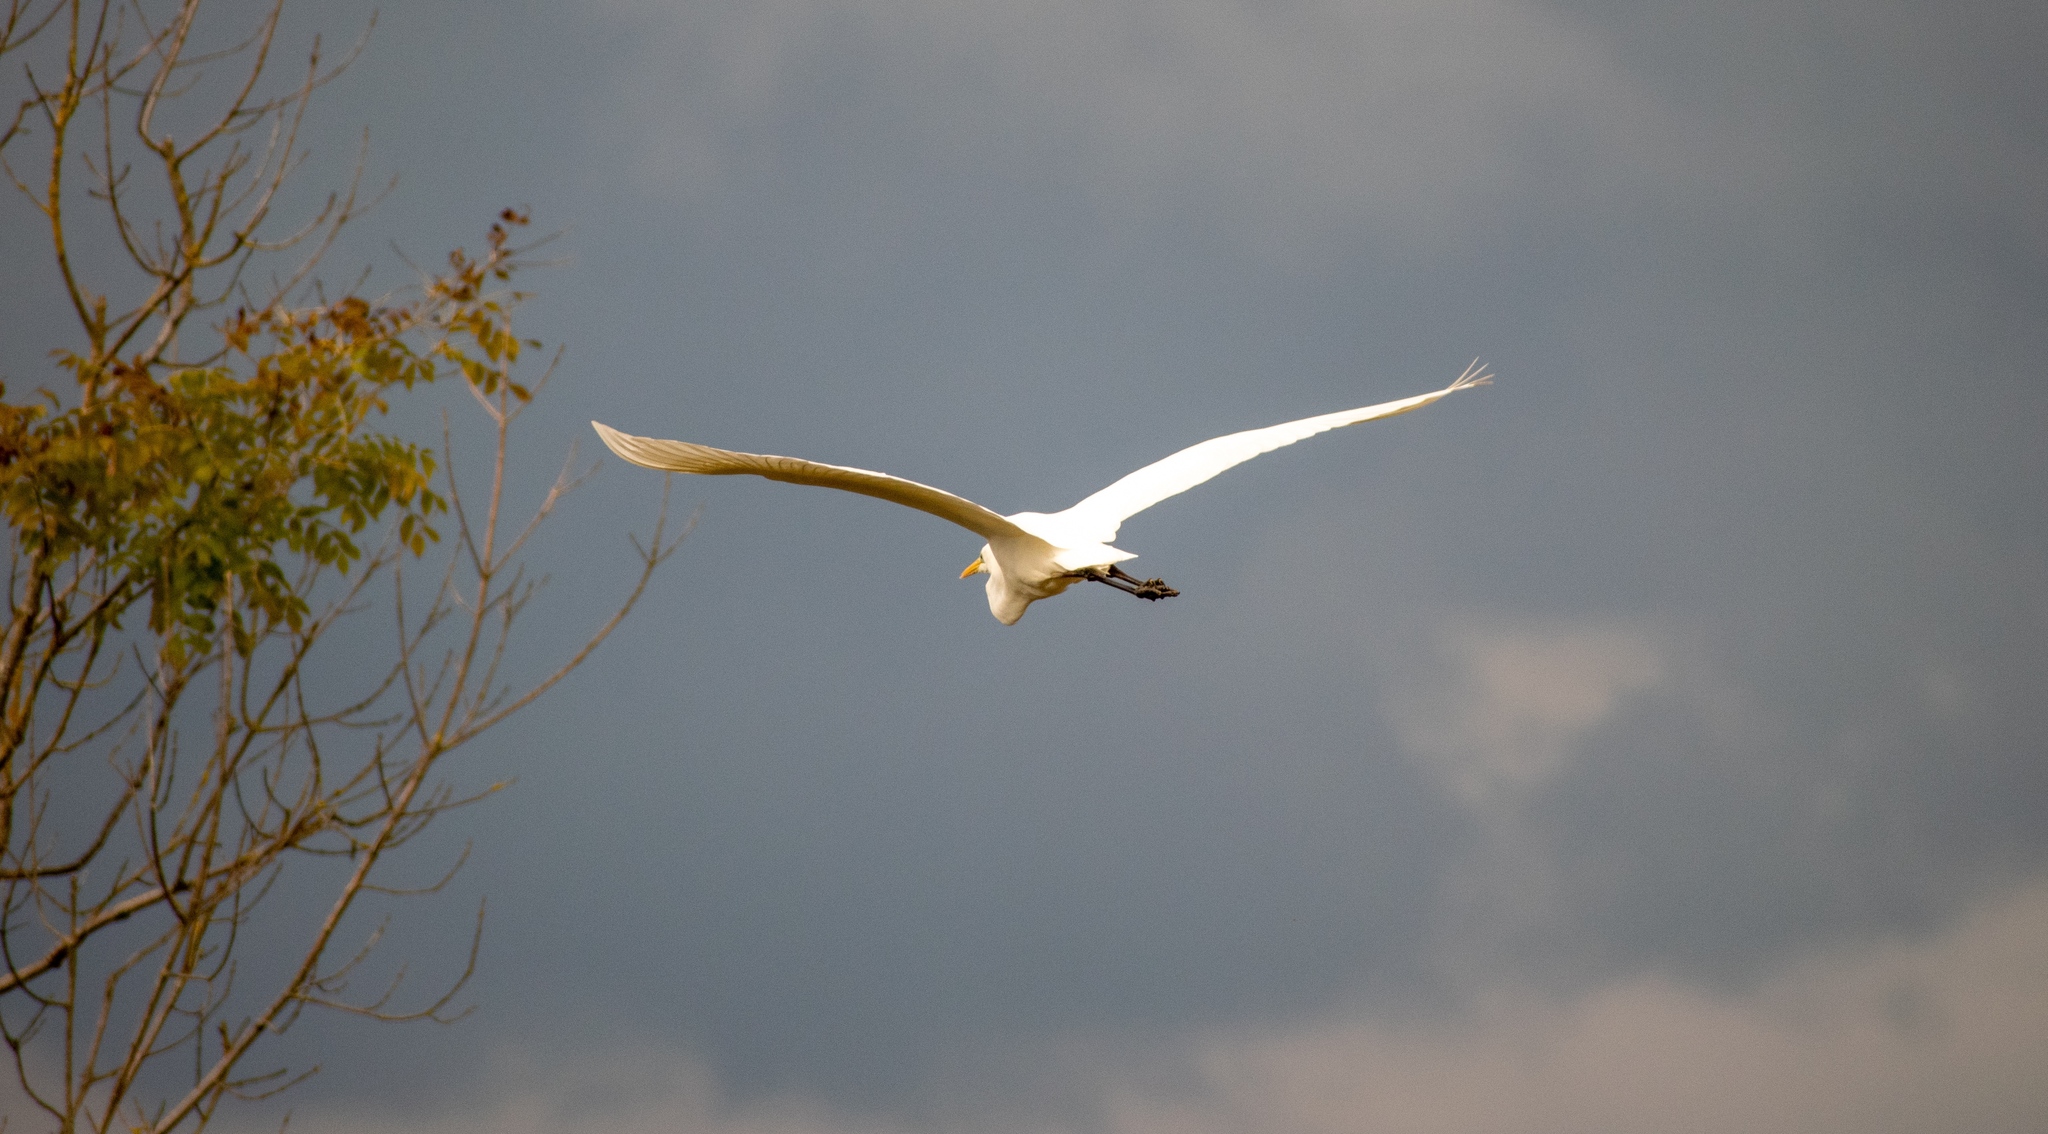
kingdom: Animalia
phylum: Chordata
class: Aves
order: Pelecaniformes
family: Ardeidae
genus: Ardea
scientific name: Ardea alba
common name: Great egret
